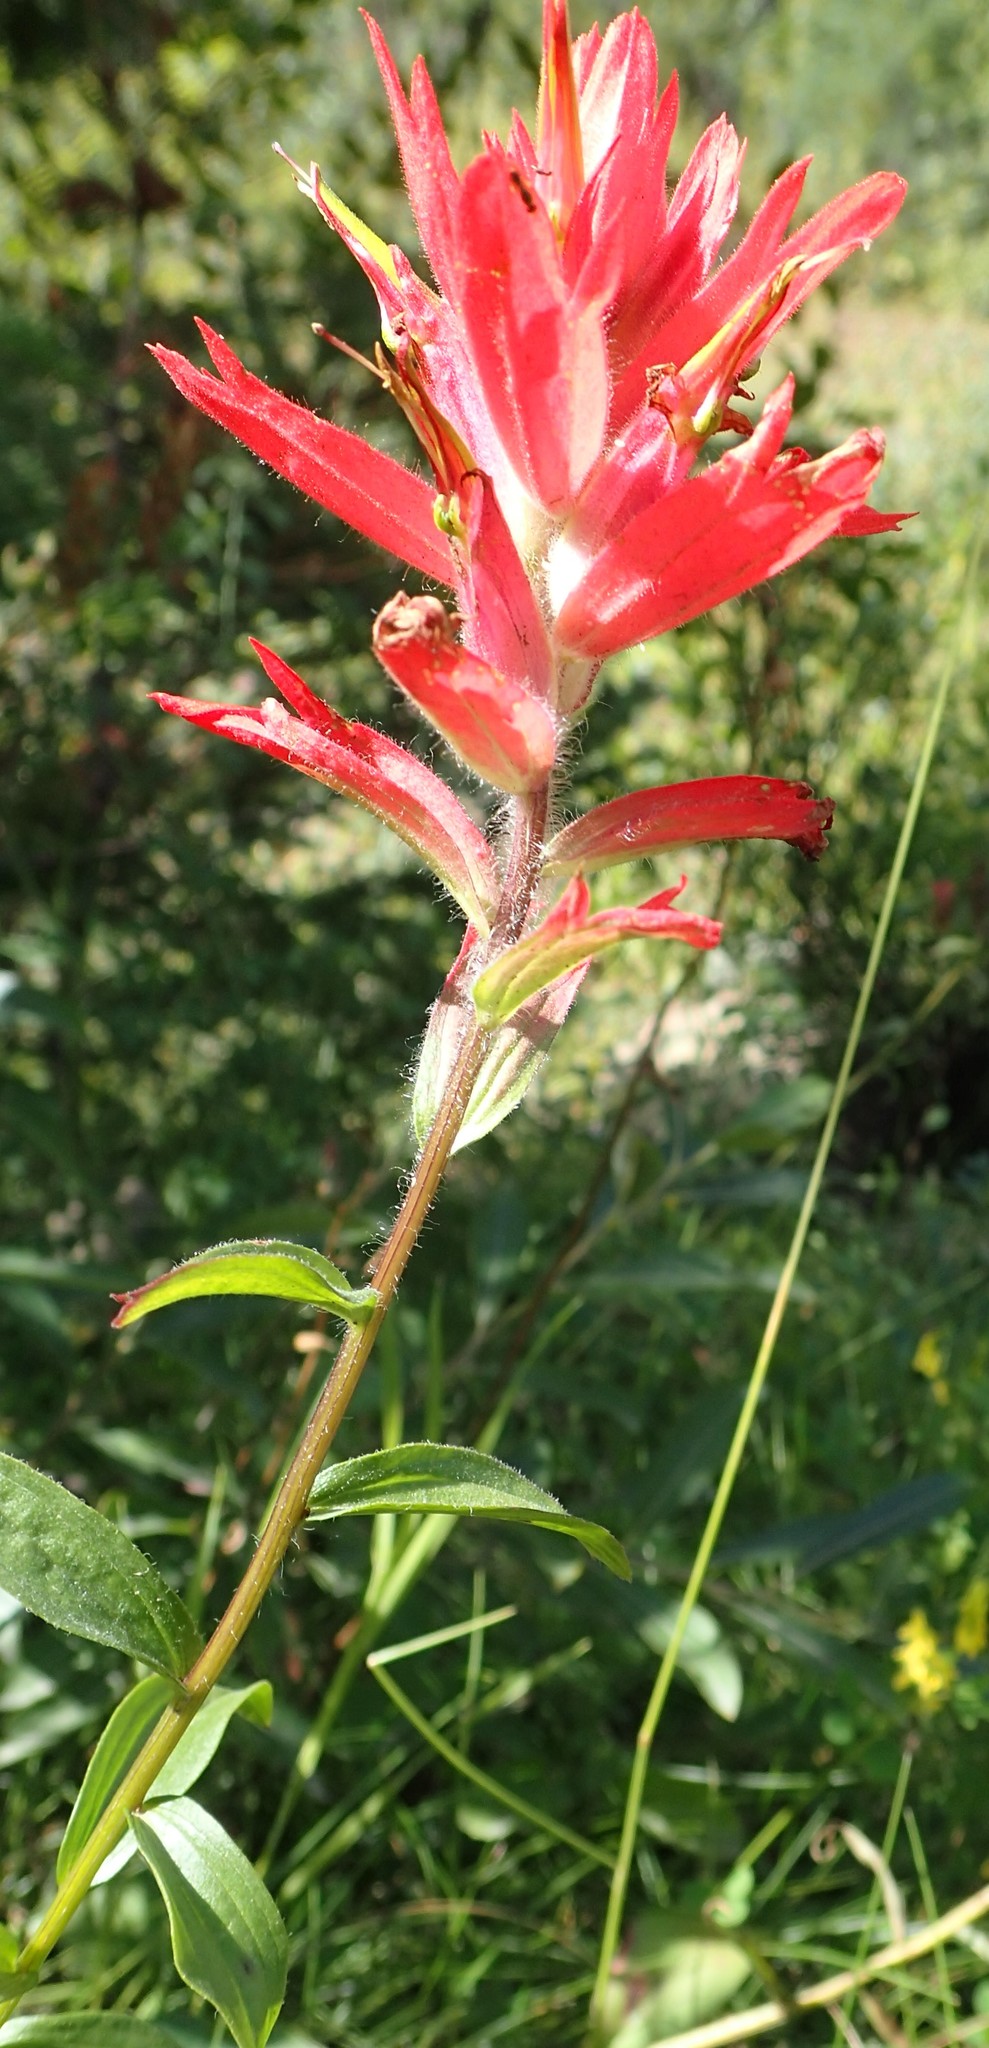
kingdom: Plantae
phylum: Tracheophyta
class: Magnoliopsida
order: Lamiales
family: Orobanchaceae
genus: Castilleja
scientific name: Castilleja miniata
